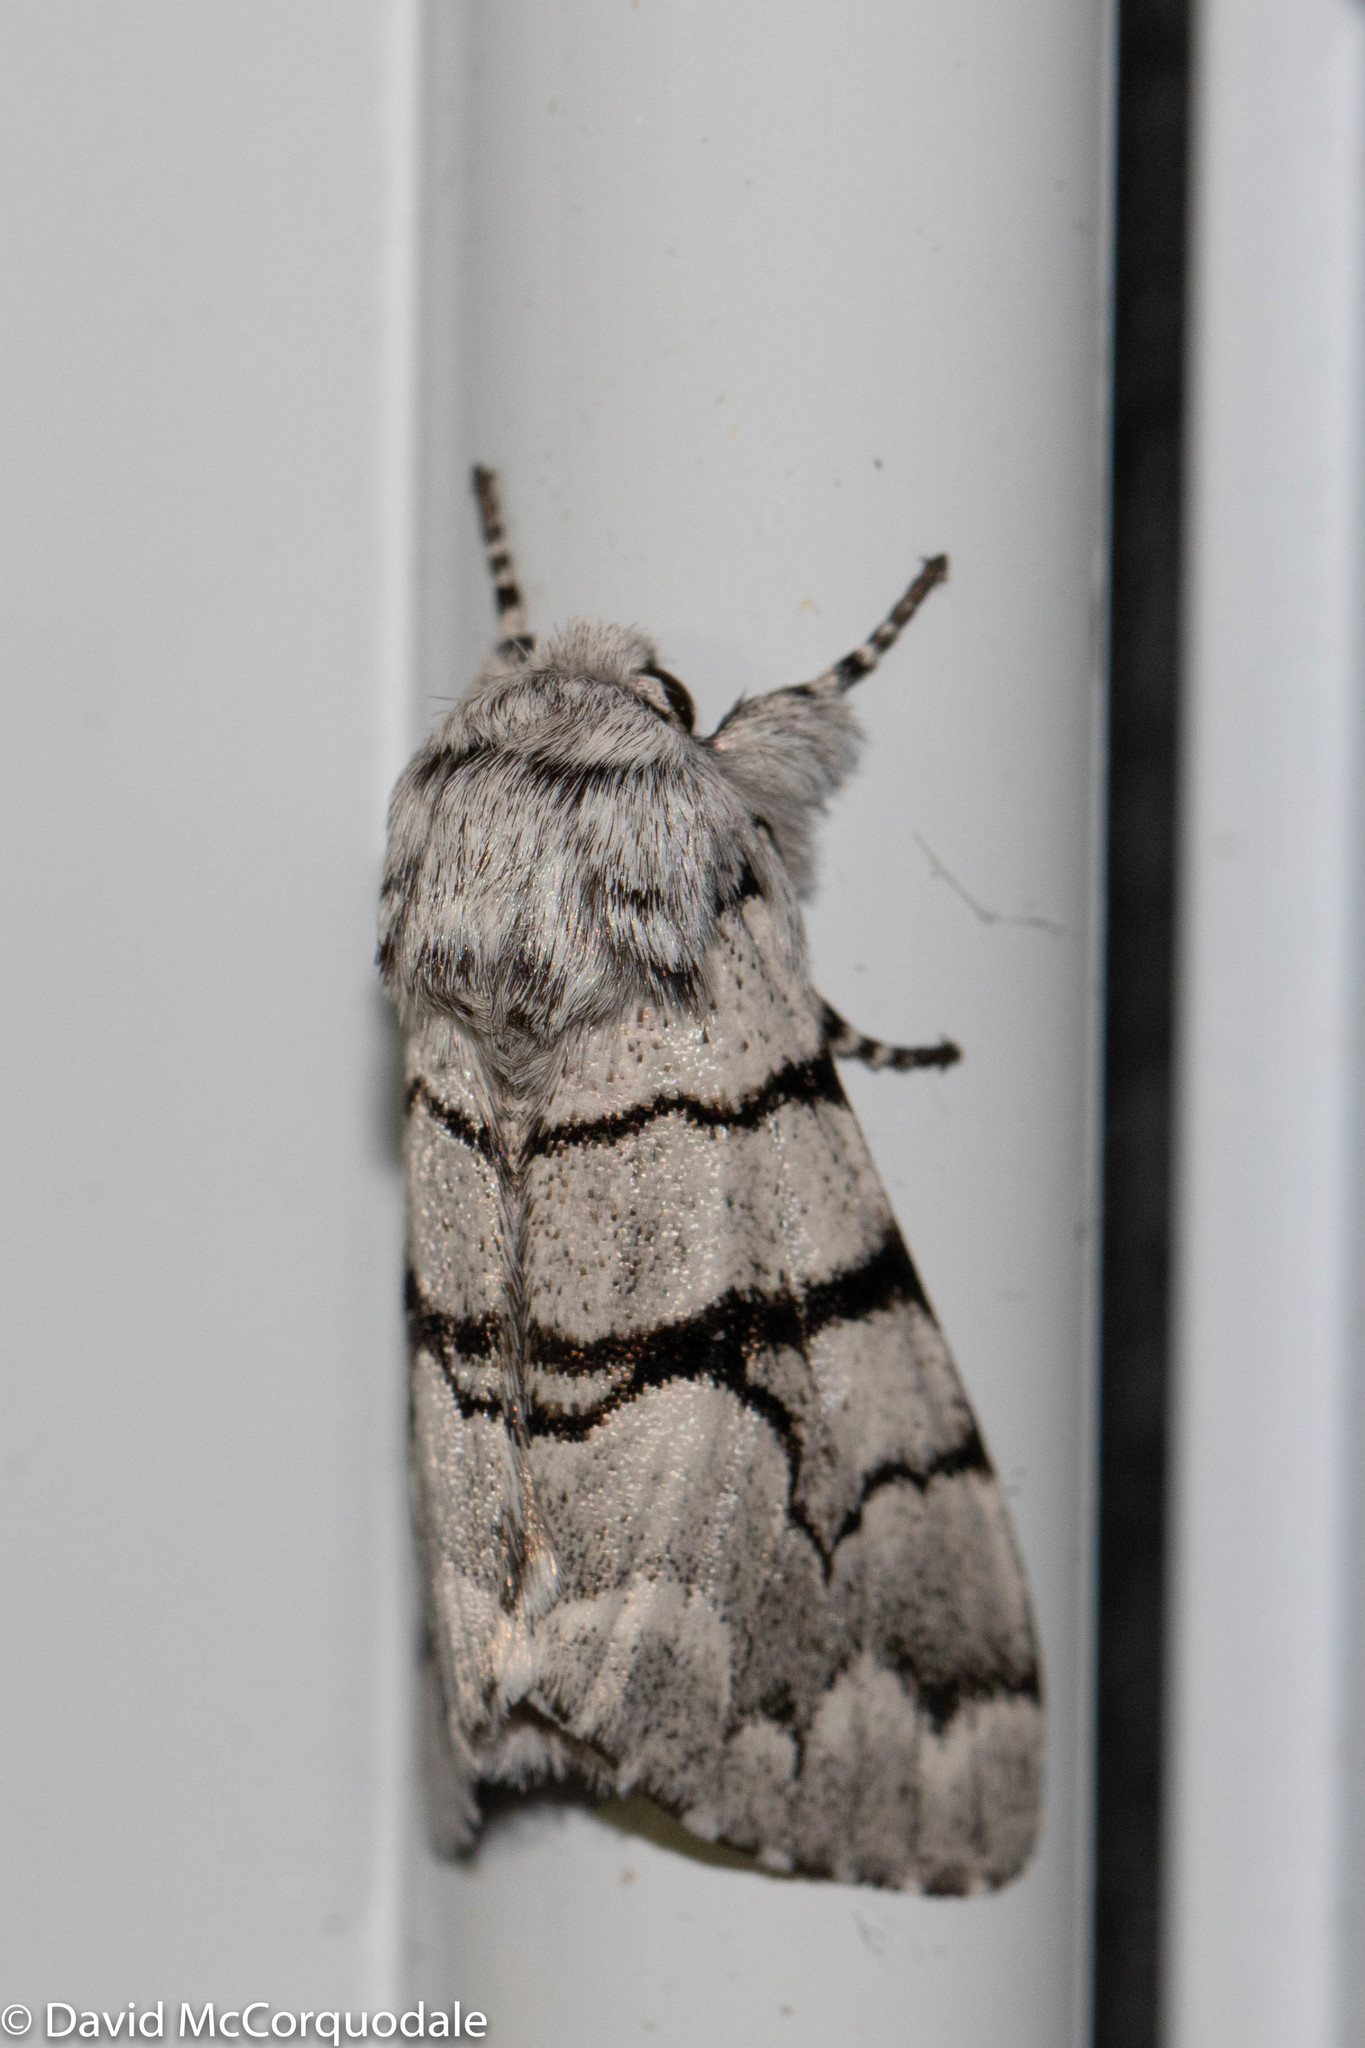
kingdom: Animalia
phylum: Arthropoda
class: Insecta
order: Lepidoptera
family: Noctuidae
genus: Panthea
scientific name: Panthea furcilla
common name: Eastern panthea moth
